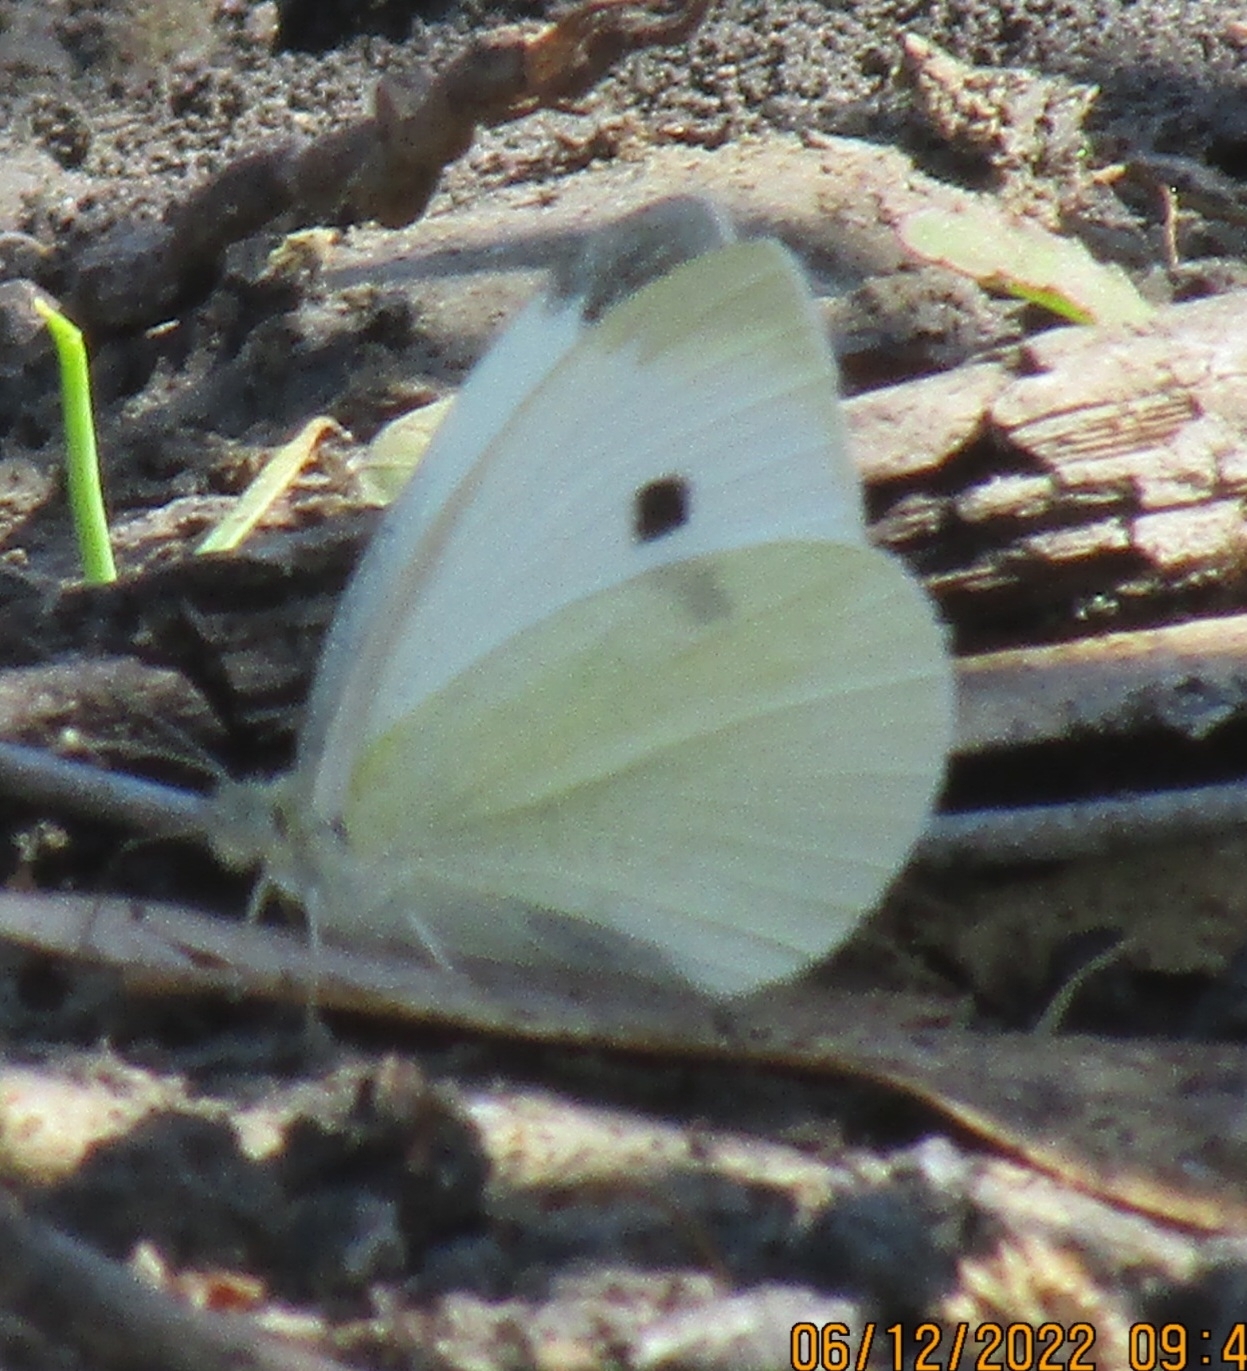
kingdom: Animalia
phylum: Arthropoda
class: Insecta
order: Lepidoptera
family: Pieridae
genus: Pieris
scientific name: Pieris rapae
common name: Small white
